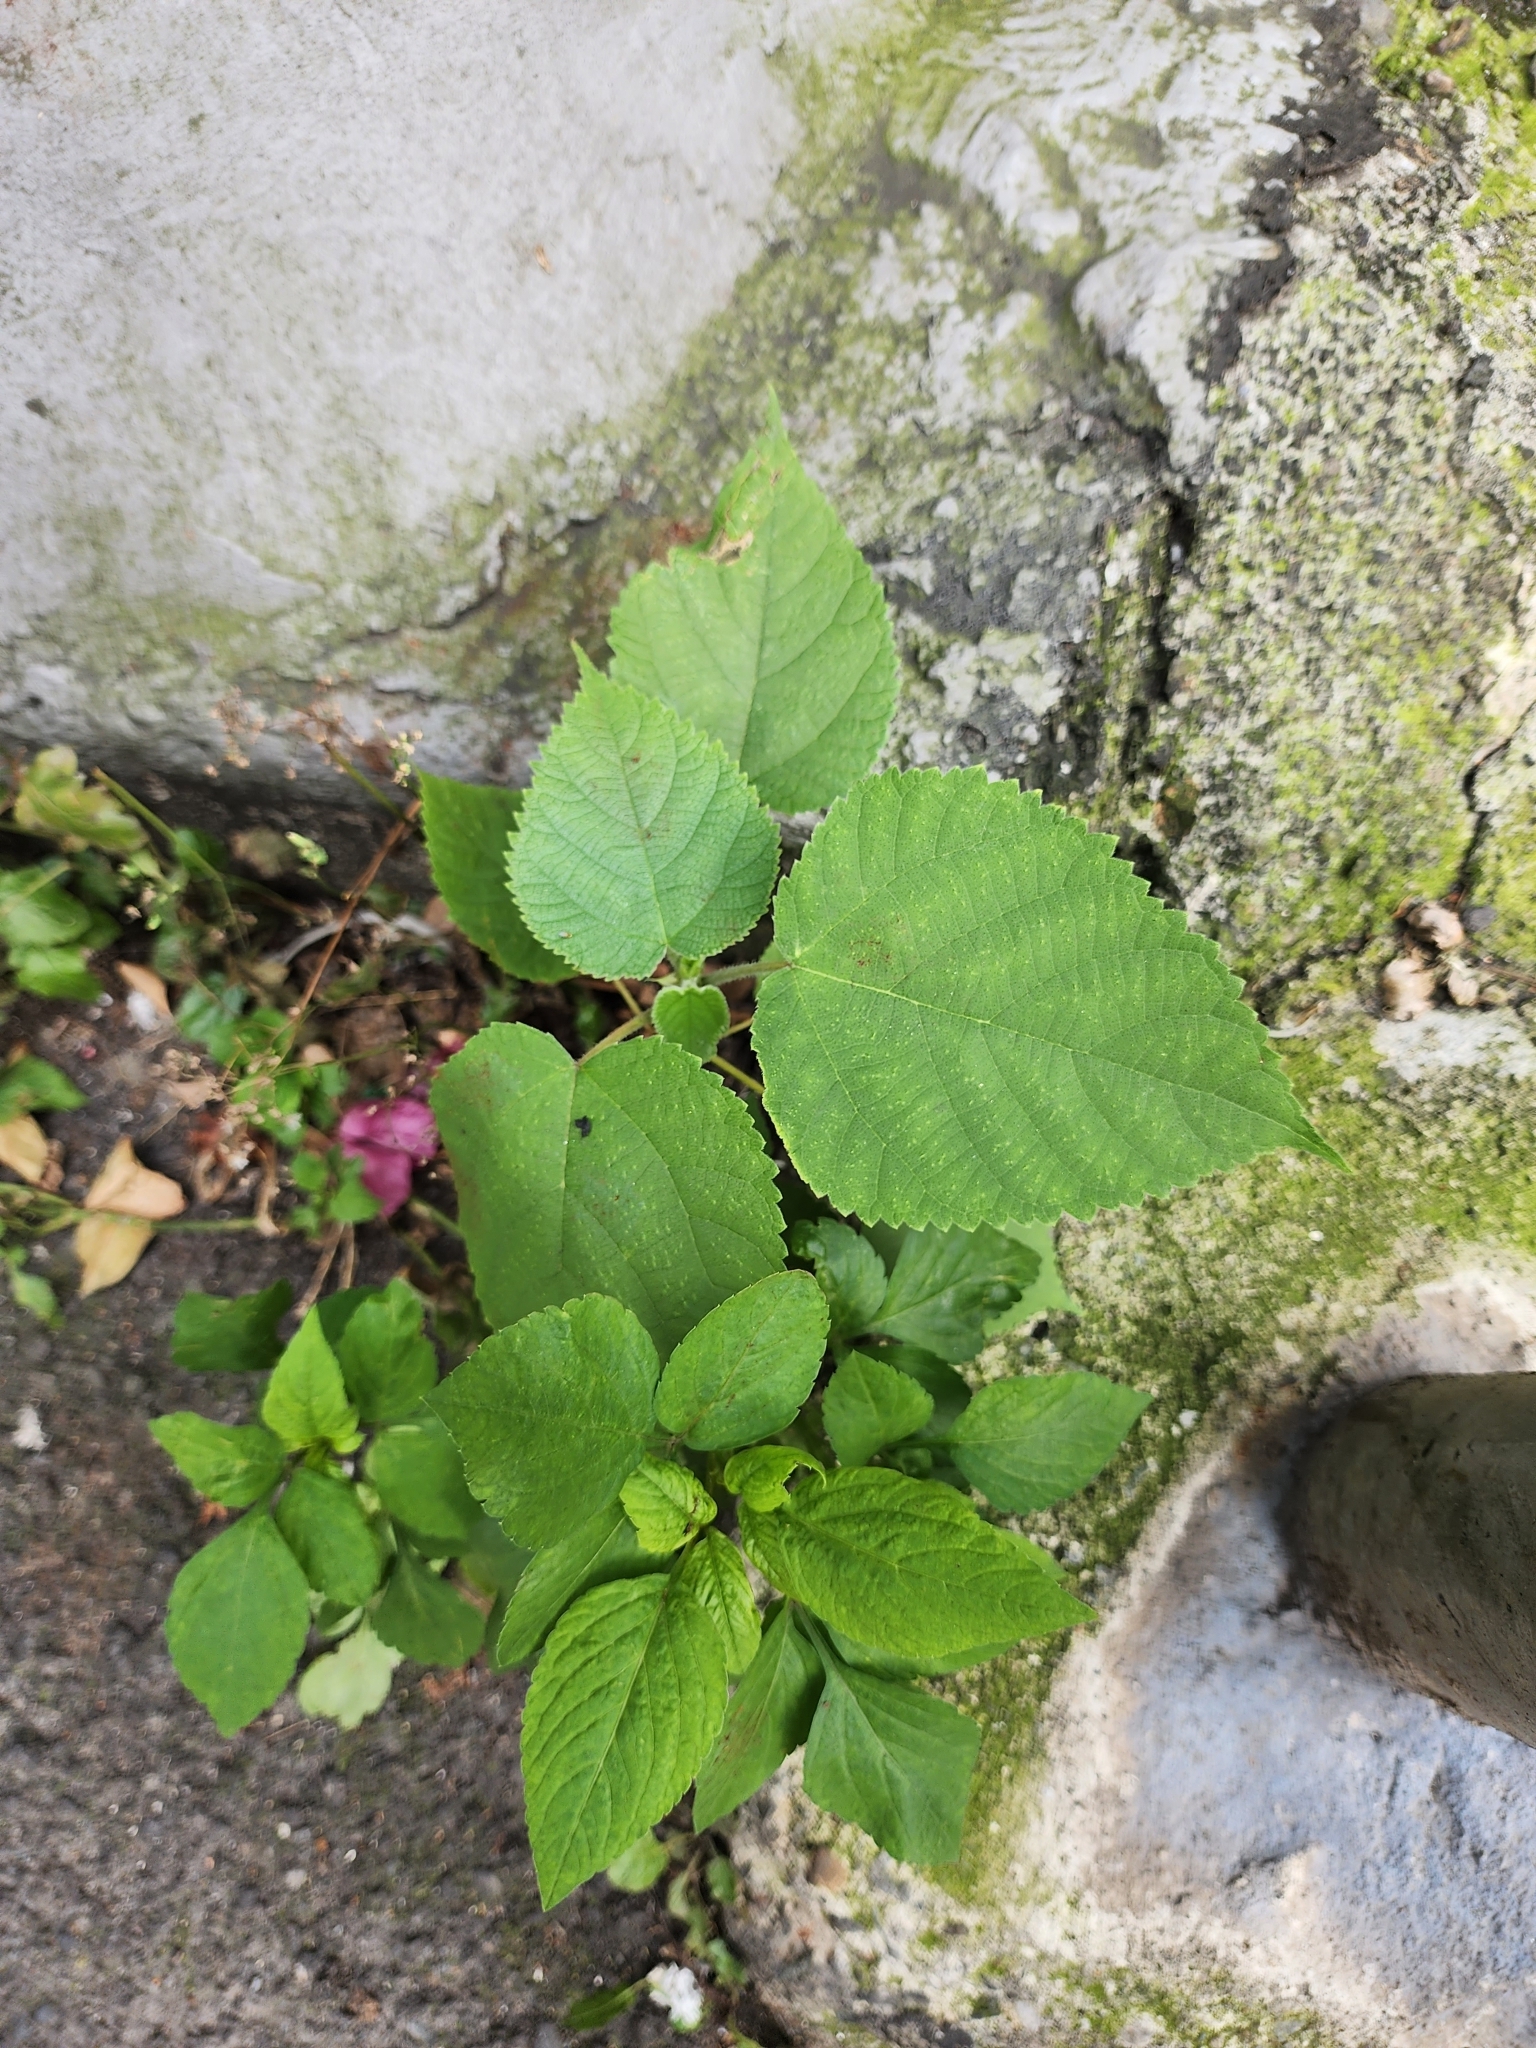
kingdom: Plantae
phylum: Tracheophyta
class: Magnoliopsida
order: Rosales
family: Moraceae
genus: Broussonetia
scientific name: Broussonetia papyrifera
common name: Paper mulberry
